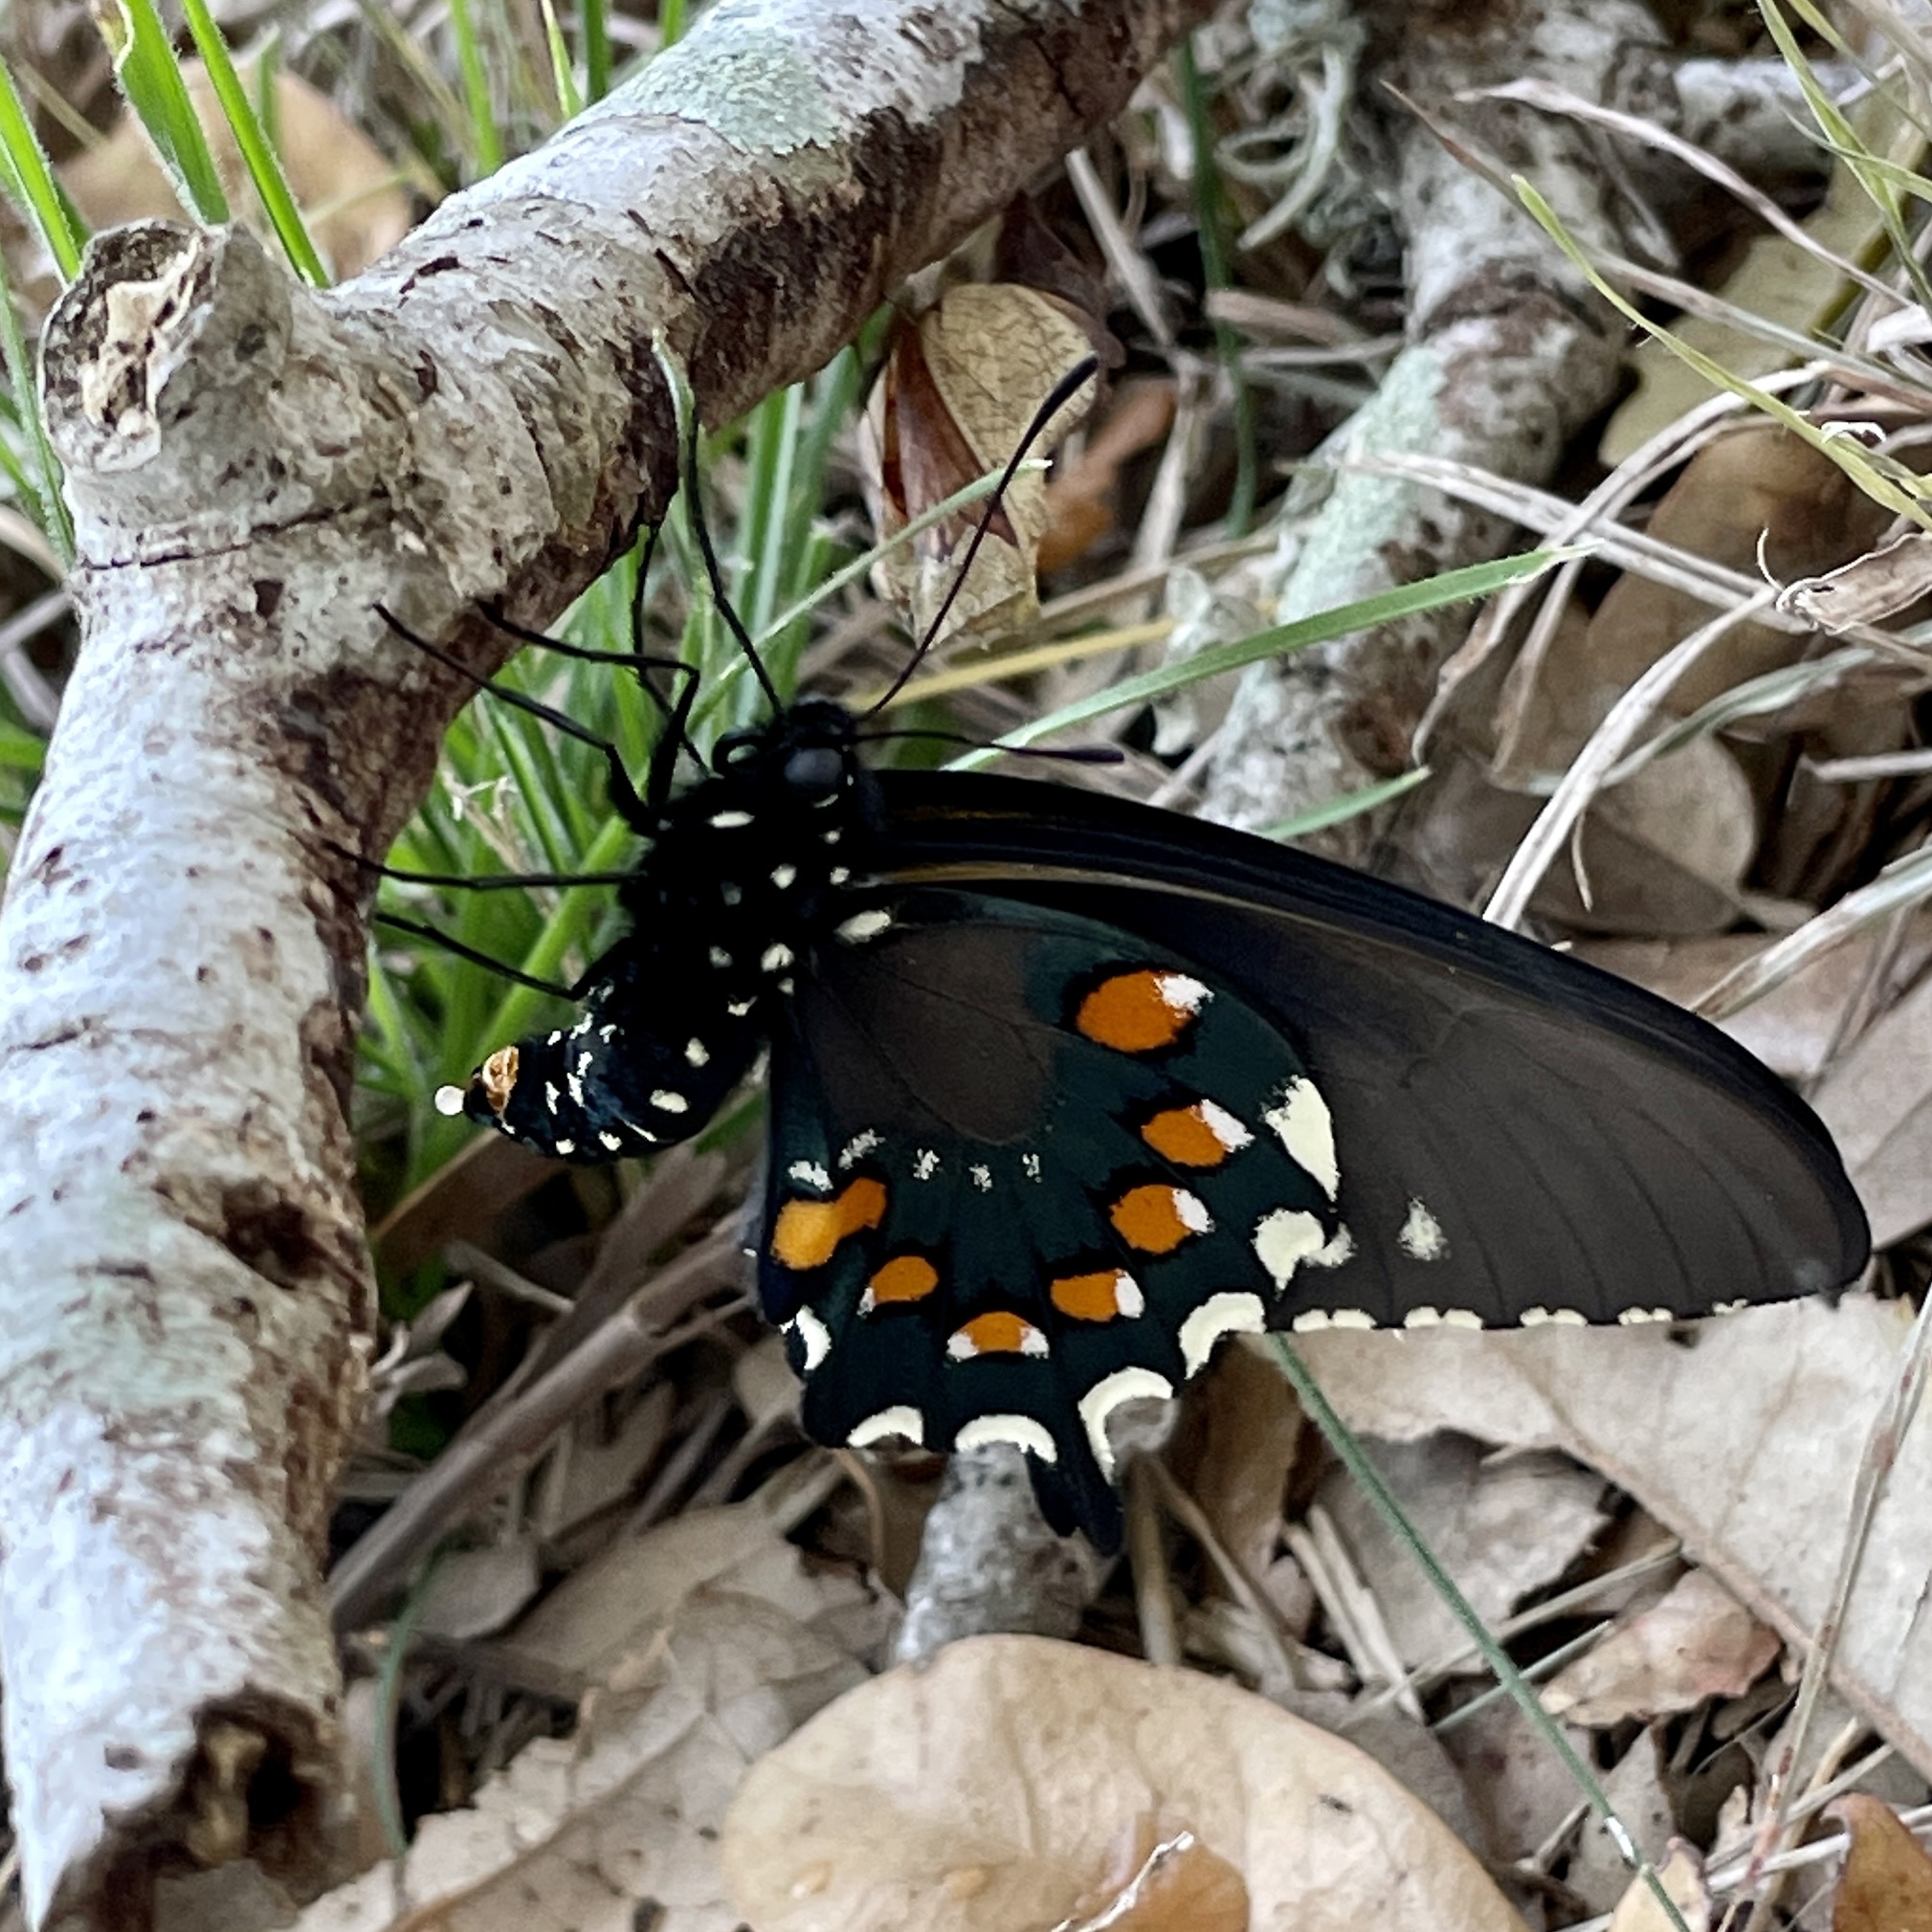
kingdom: Animalia
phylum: Arthropoda
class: Insecta
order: Lepidoptera
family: Papilionidae
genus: Battus
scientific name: Battus philenor
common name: Pipevine swallowtail
